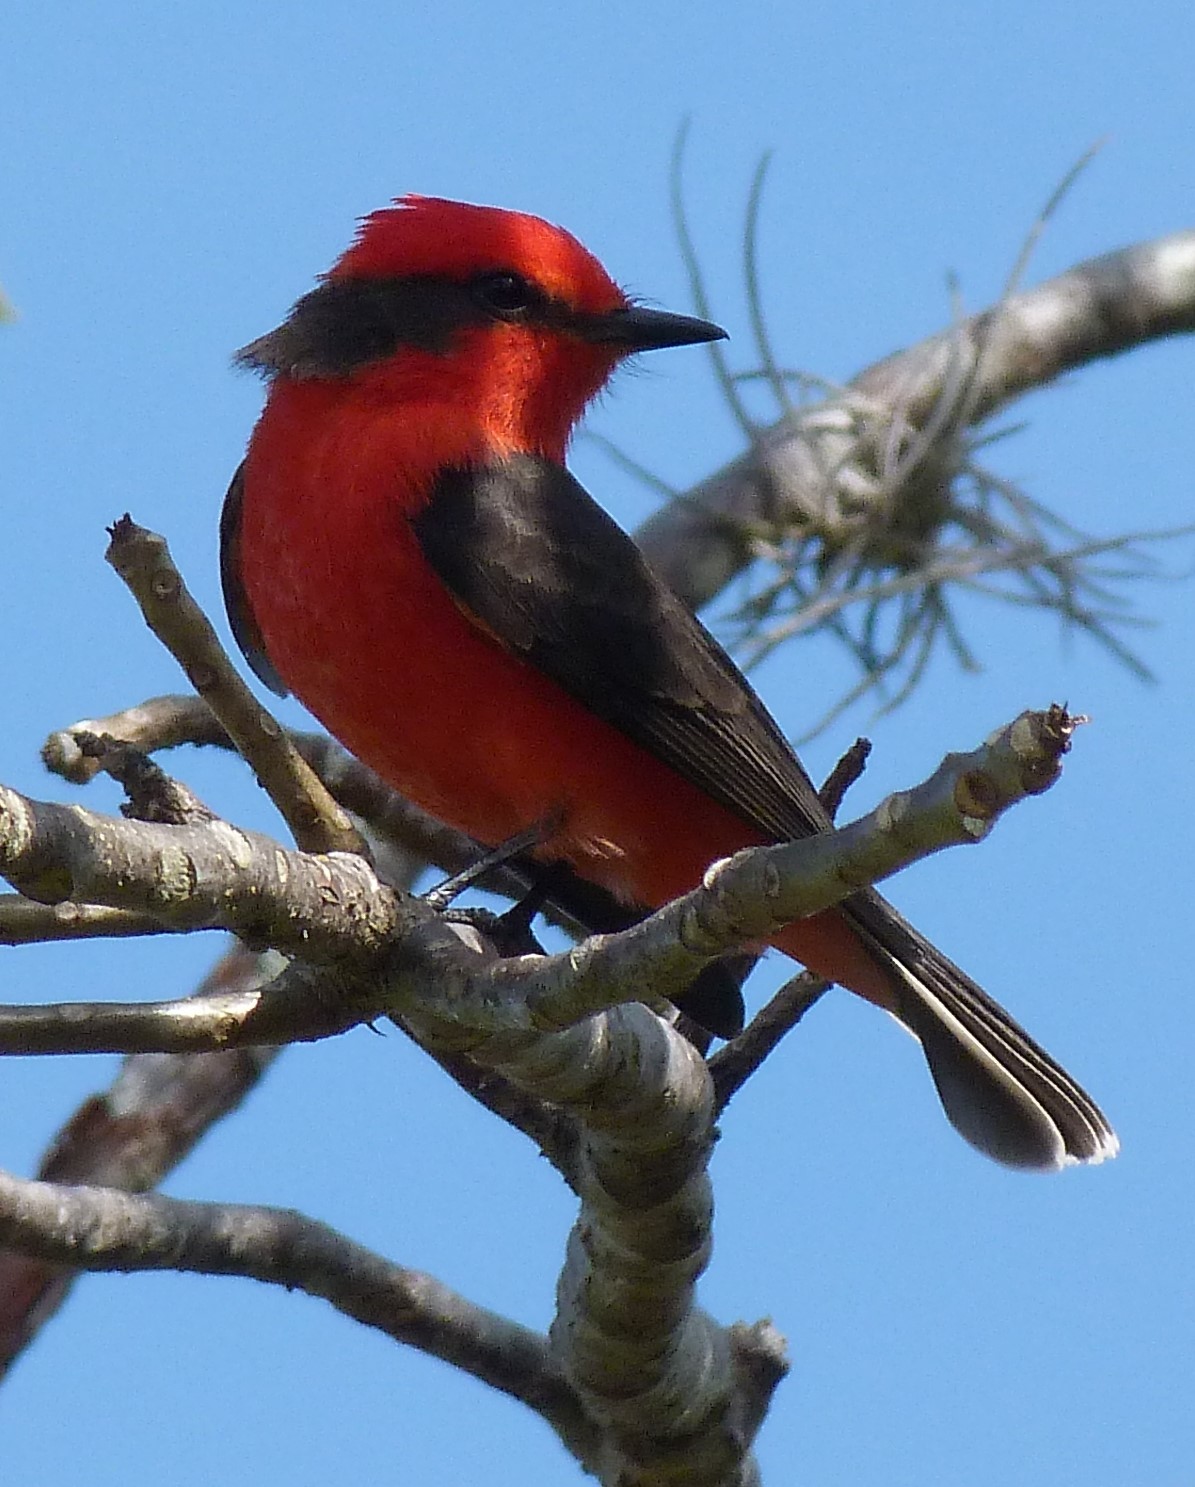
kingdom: Animalia
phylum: Chordata
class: Aves
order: Passeriformes
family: Tyrannidae
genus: Pyrocephalus
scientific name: Pyrocephalus rubinus
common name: Vermilion flycatcher
